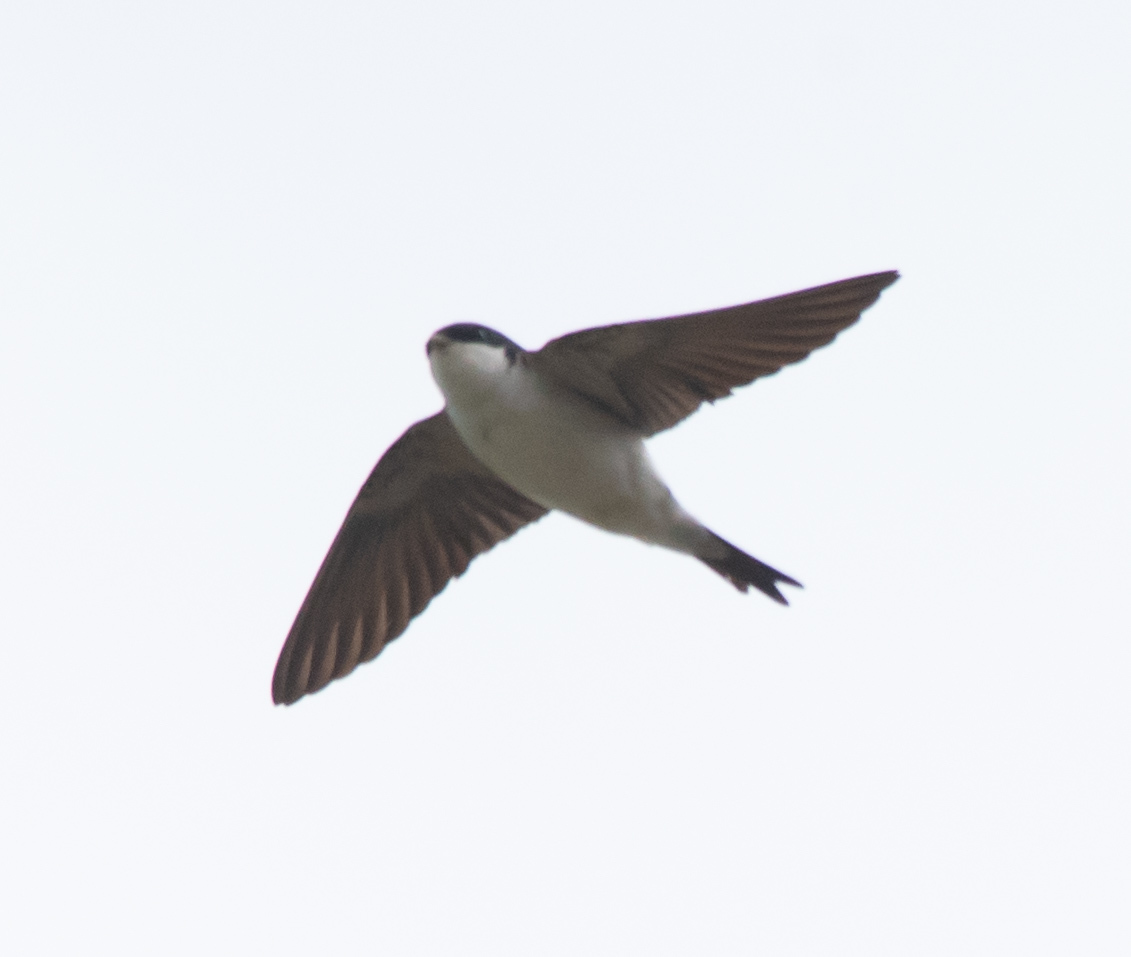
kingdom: Animalia
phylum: Chordata
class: Aves
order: Passeriformes
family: Hirundinidae
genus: Delichon
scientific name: Delichon urbicum
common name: Common house martin
